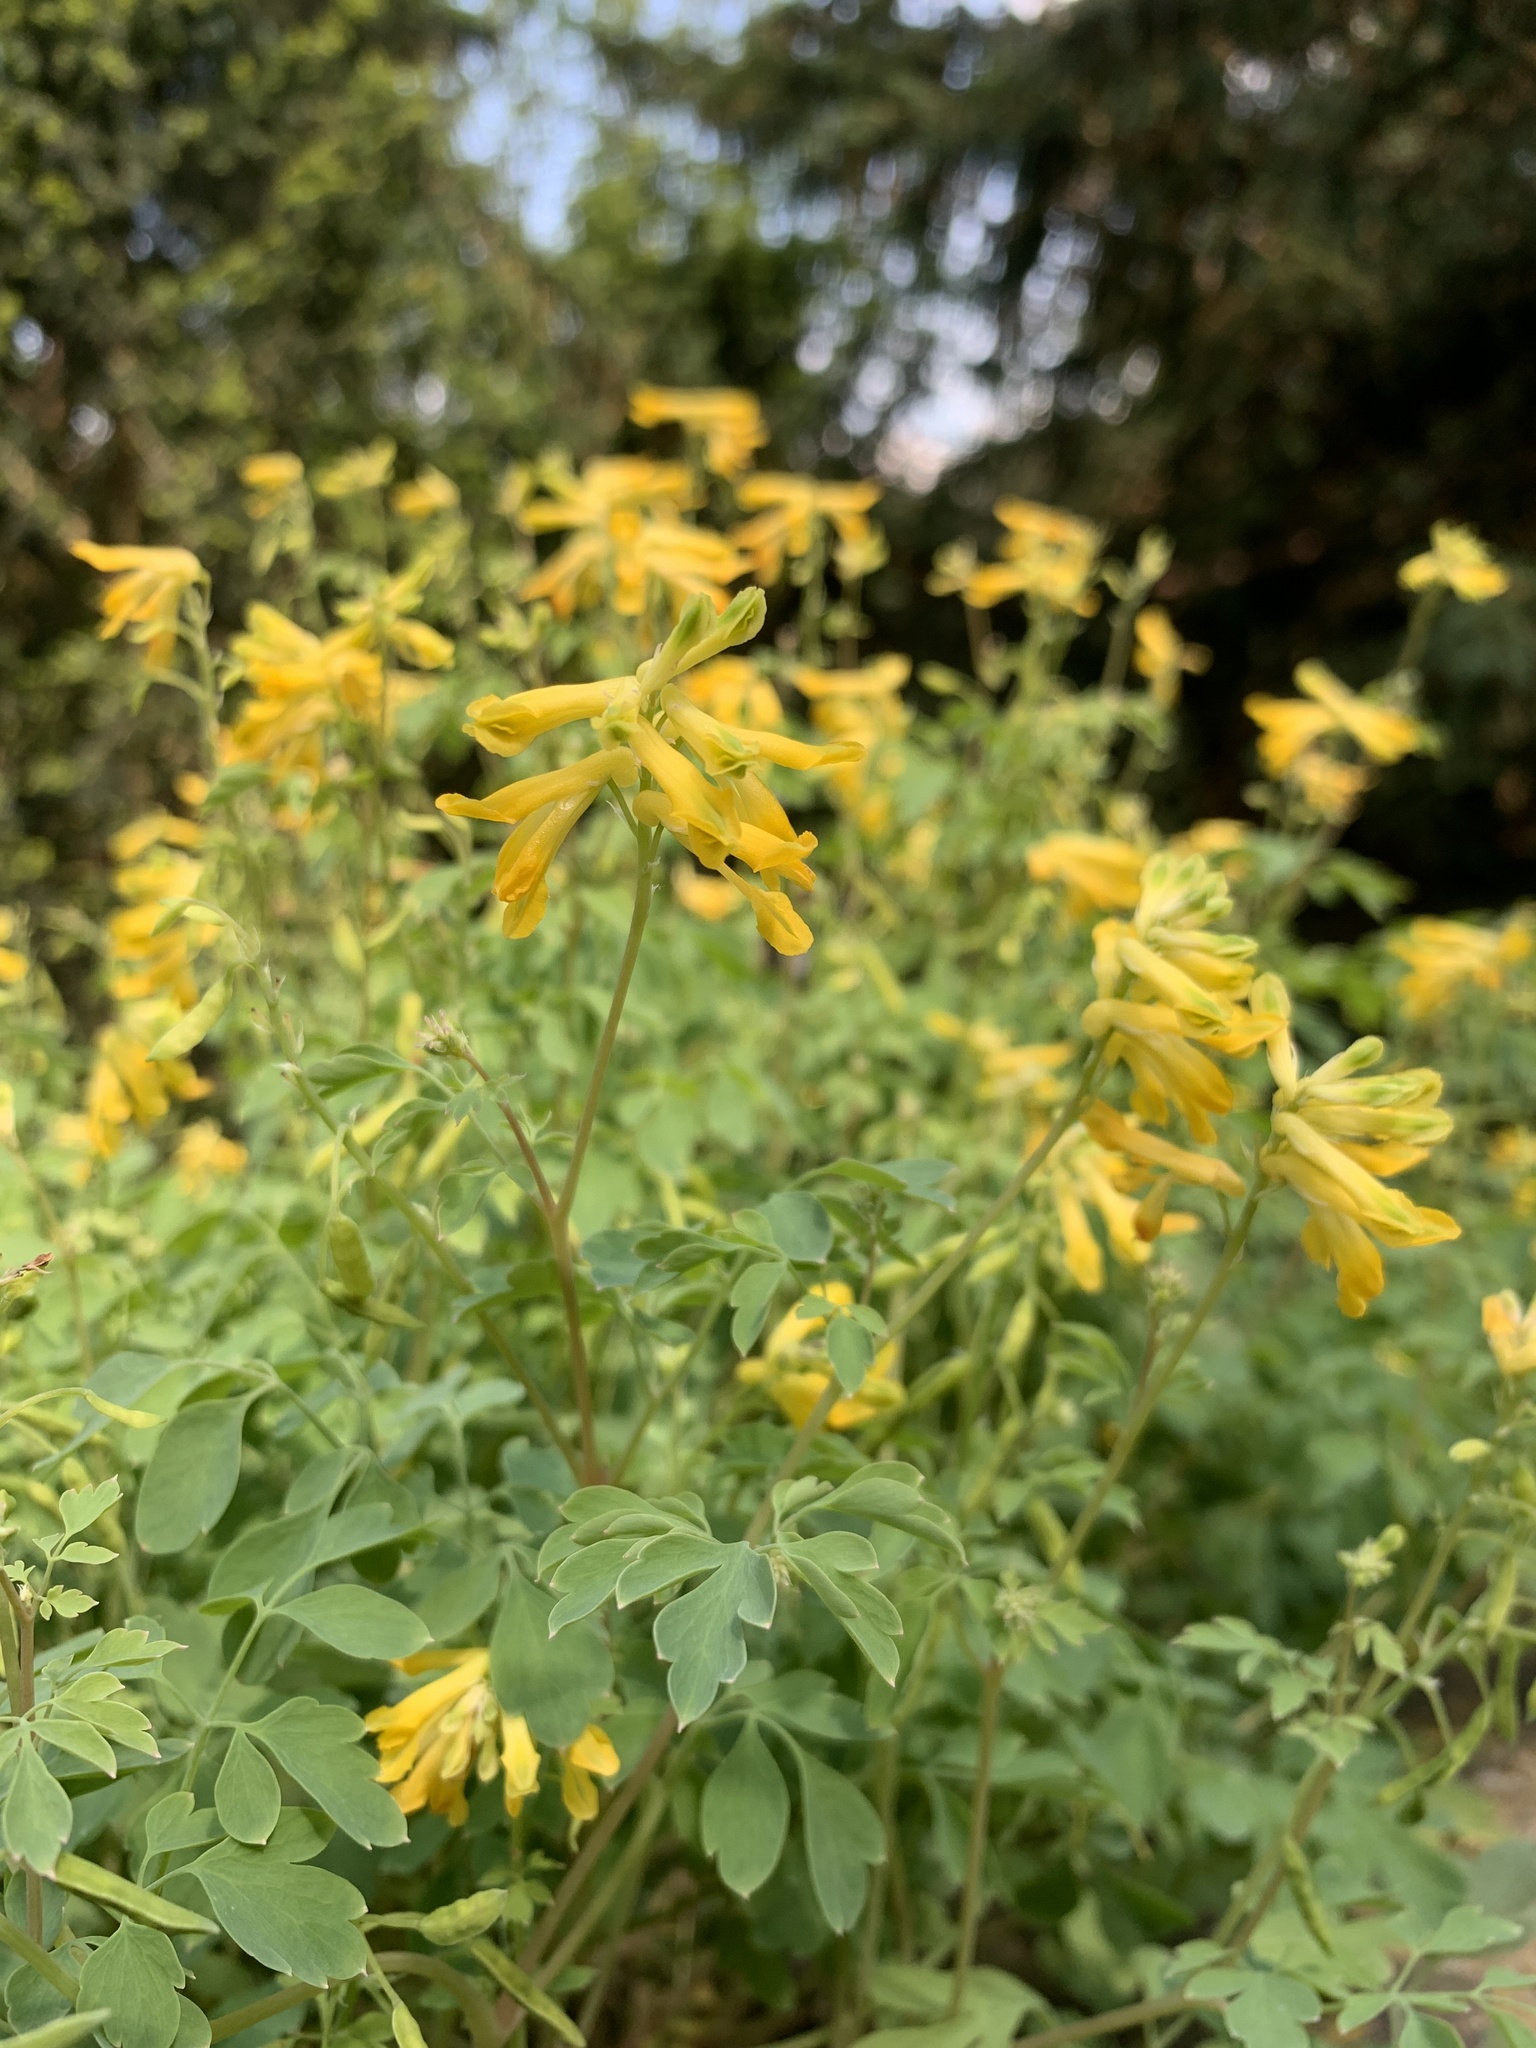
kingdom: Plantae
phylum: Tracheophyta
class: Magnoliopsida
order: Ranunculales
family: Papaveraceae
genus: Pseudofumaria
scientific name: Pseudofumaria lutea
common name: Yellow corydalis
